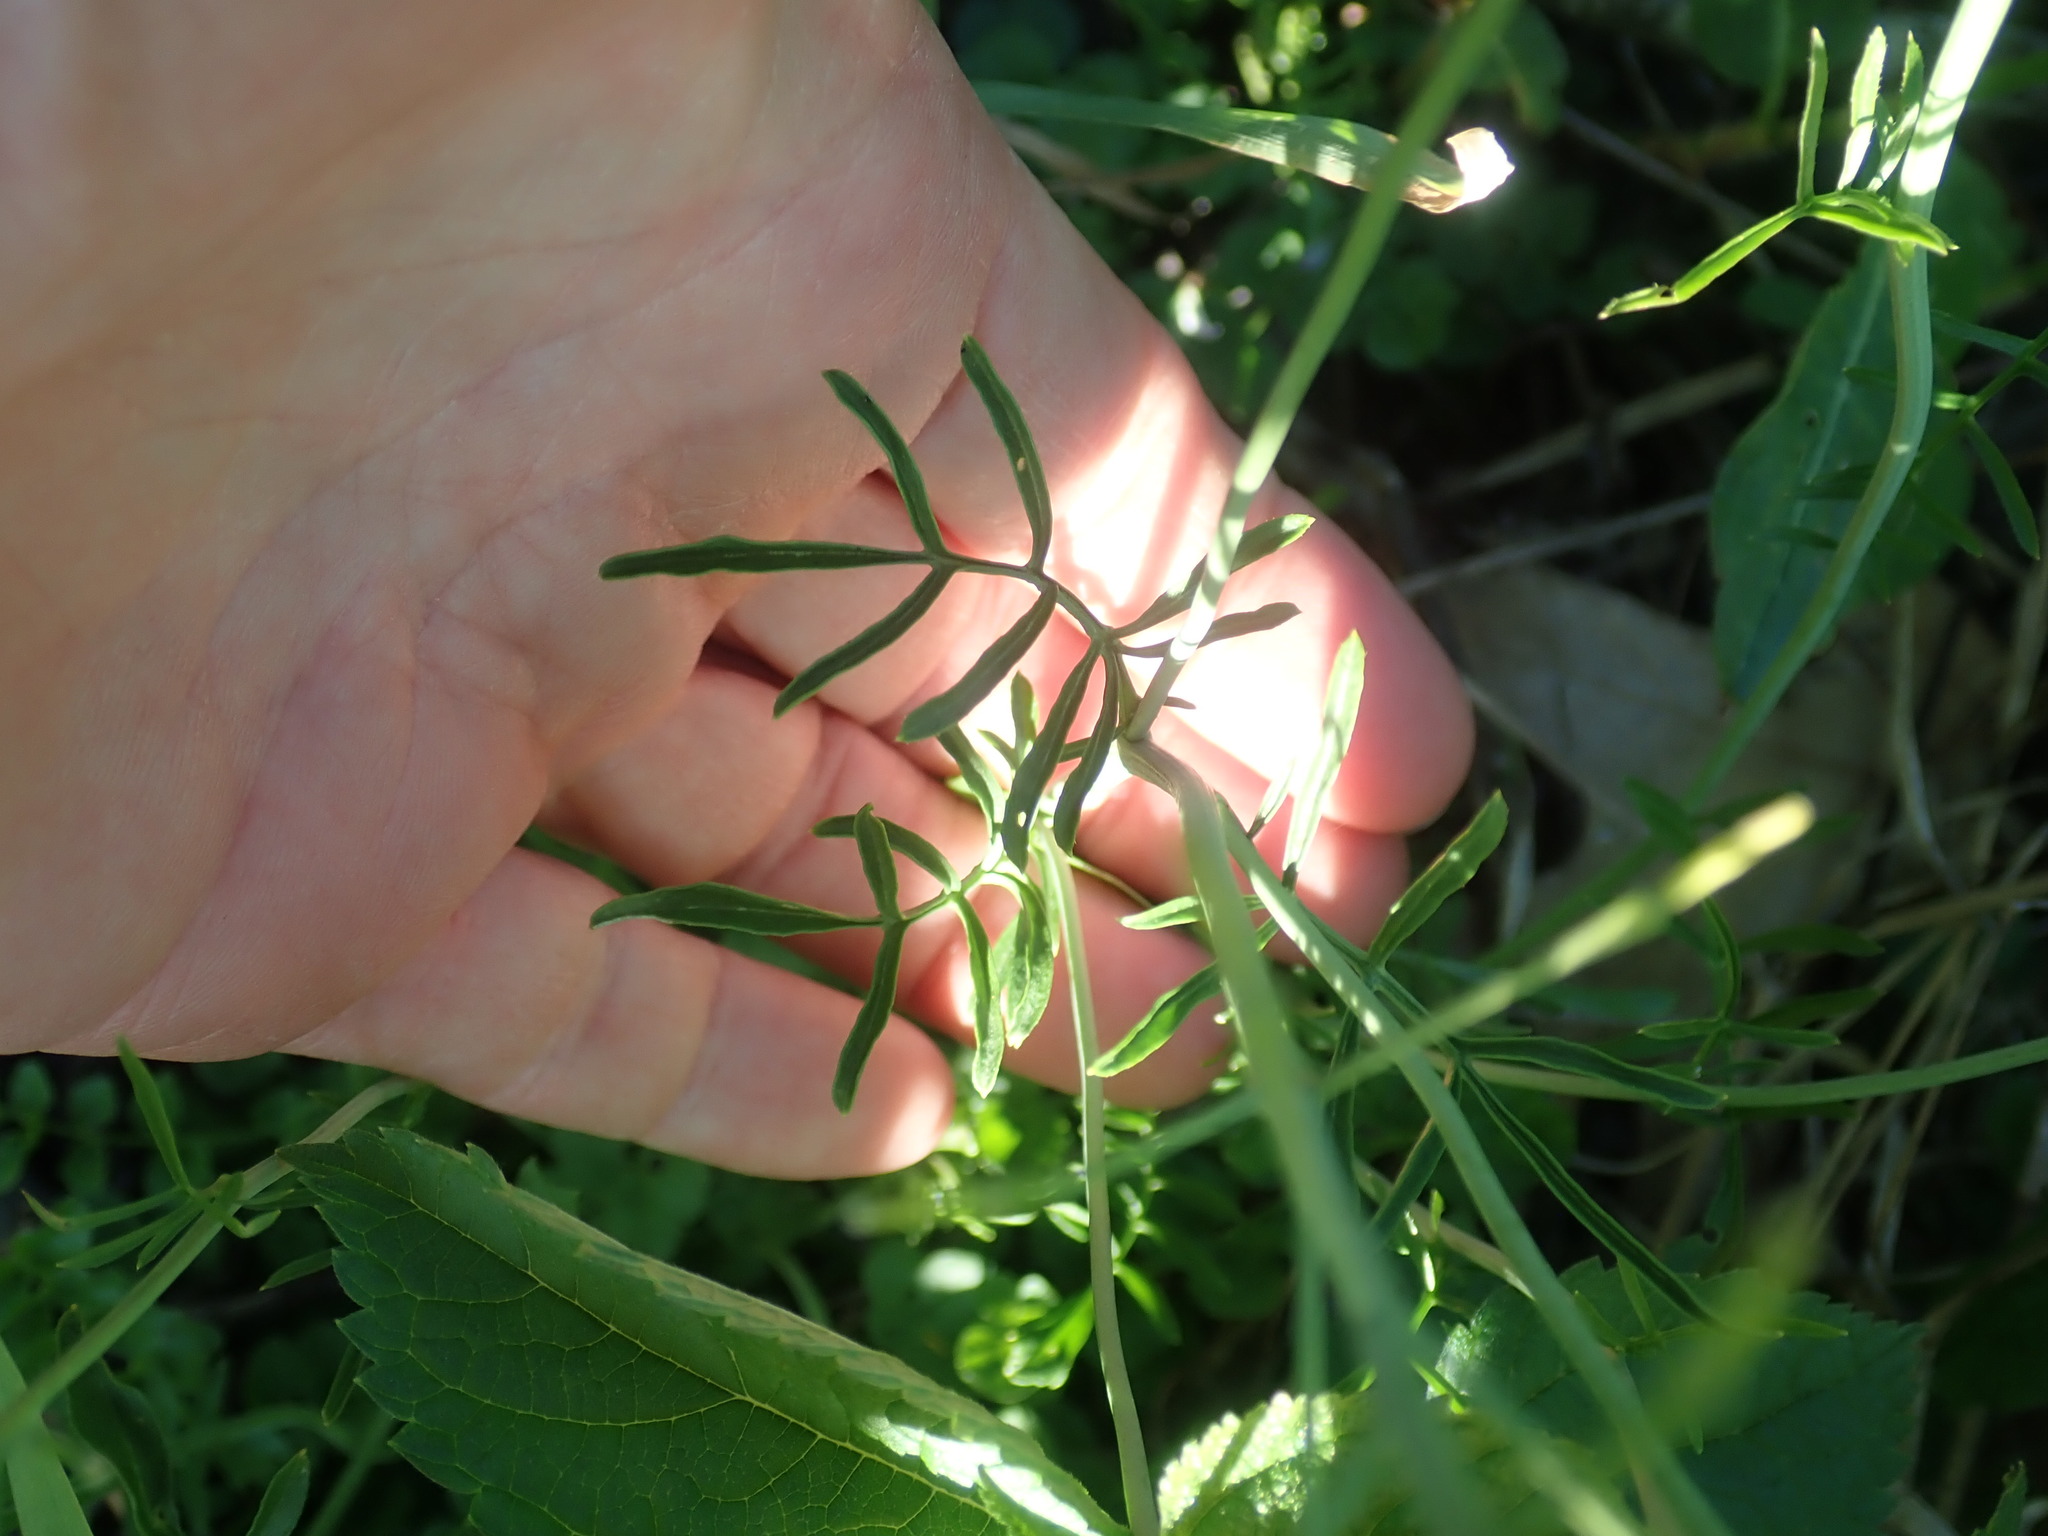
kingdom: Plantae
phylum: Tracheophyta
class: Magnoliopsida
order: Brassicales
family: Brassicaceae
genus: Cardamine
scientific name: Cardamine pratensis
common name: Cuckoo flower
